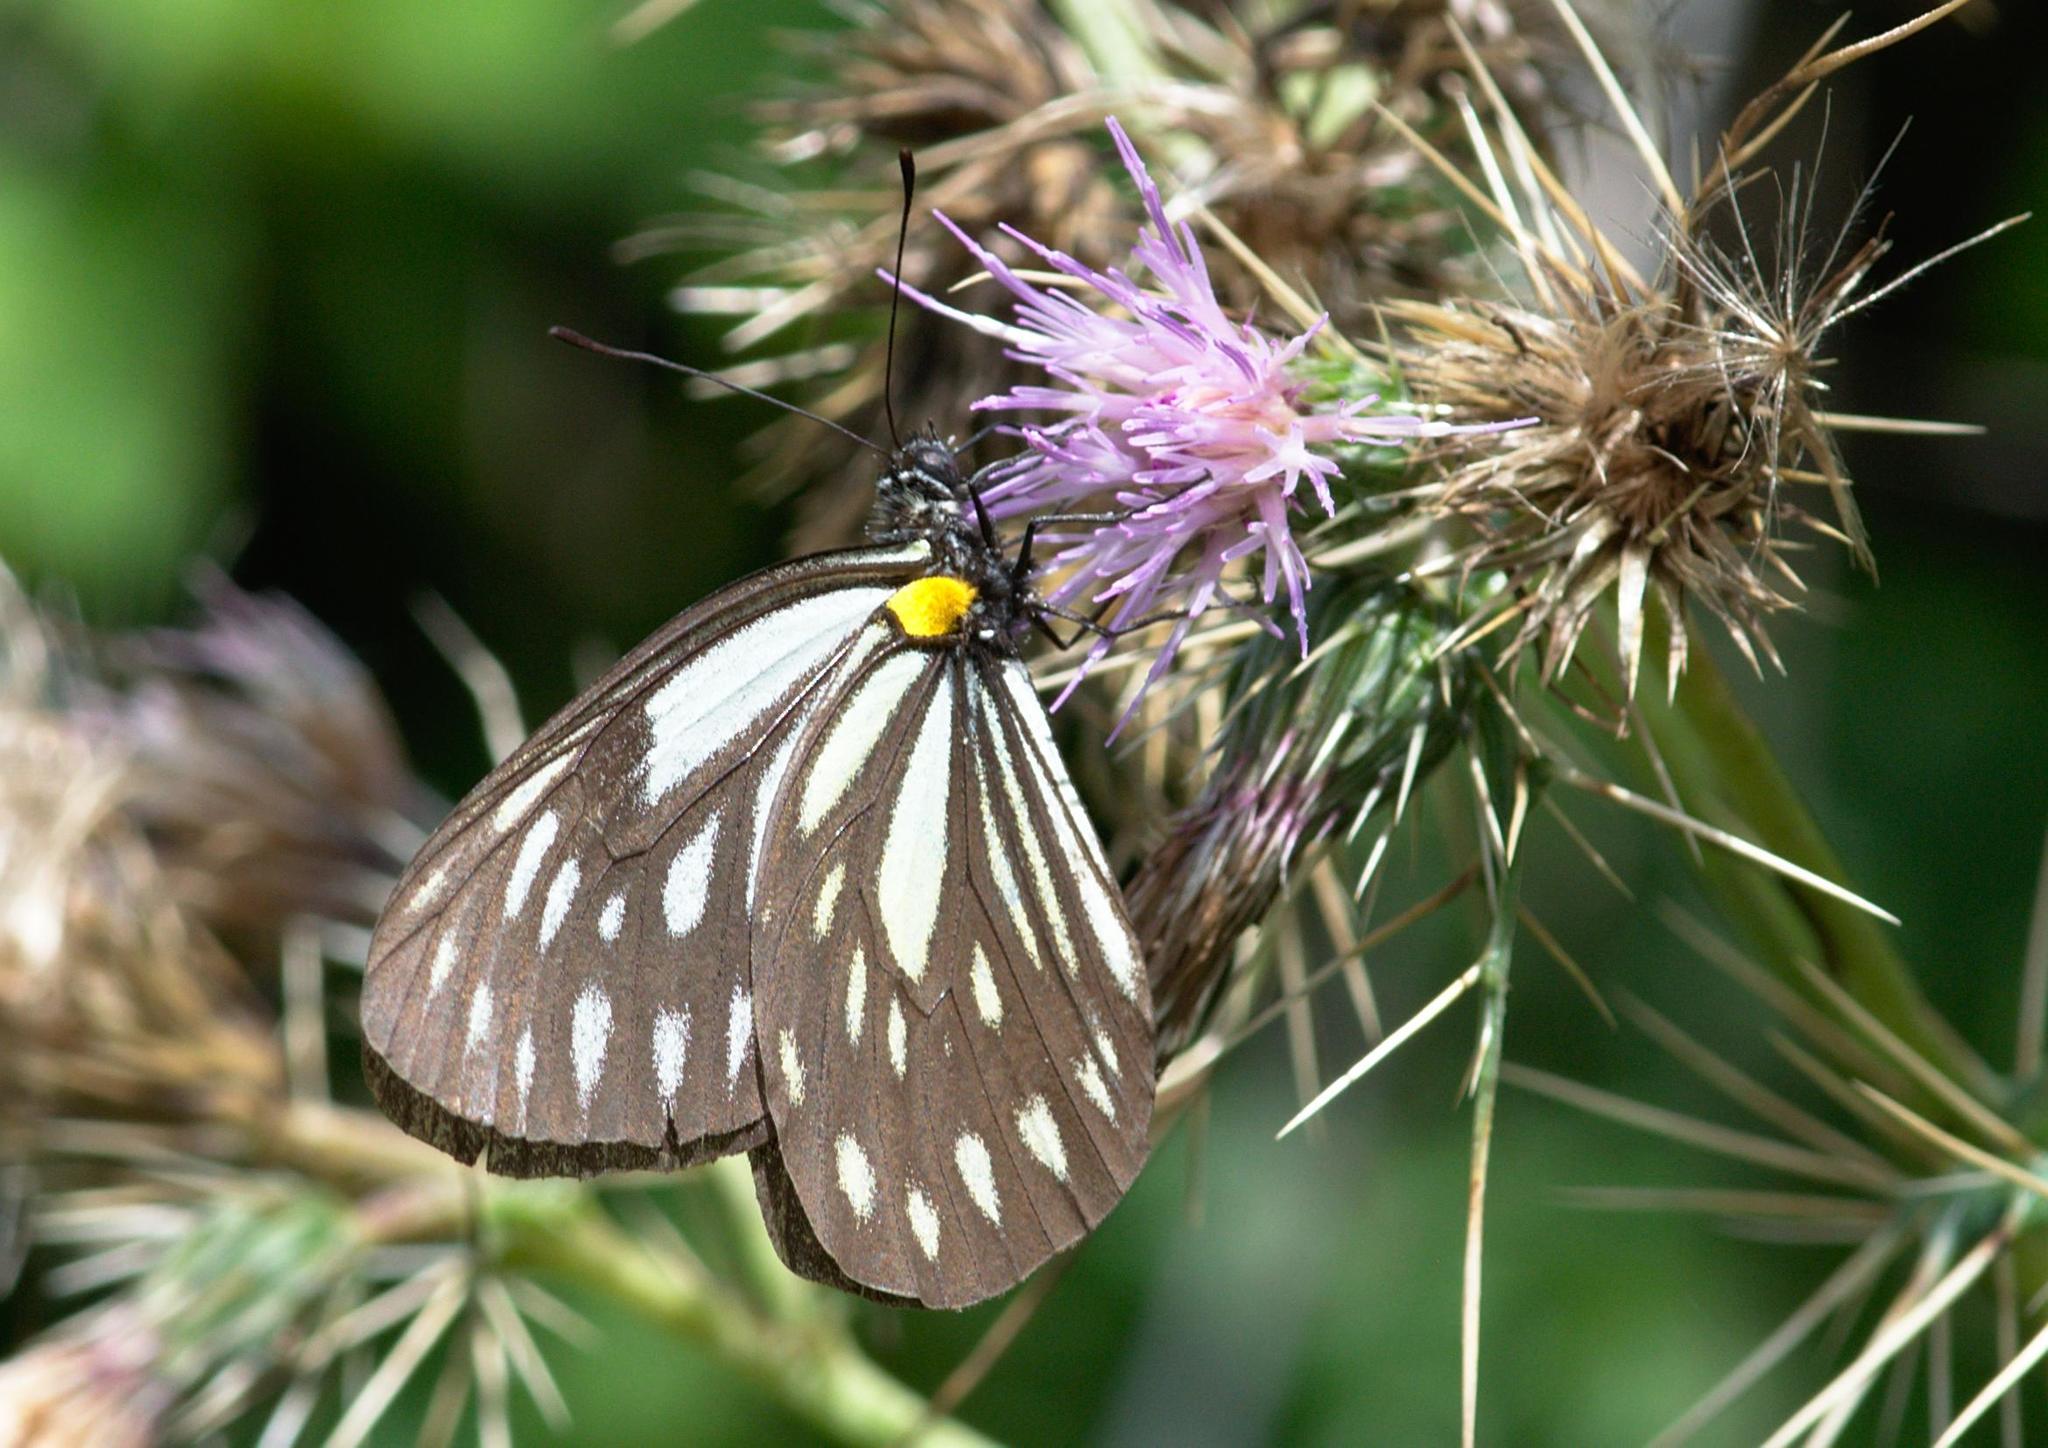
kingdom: Animalia
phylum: Arthropoda
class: Insecta
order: Lepidoptera
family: Pieridae
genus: Aporia
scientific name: Aporia agathon
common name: Great blackvein
